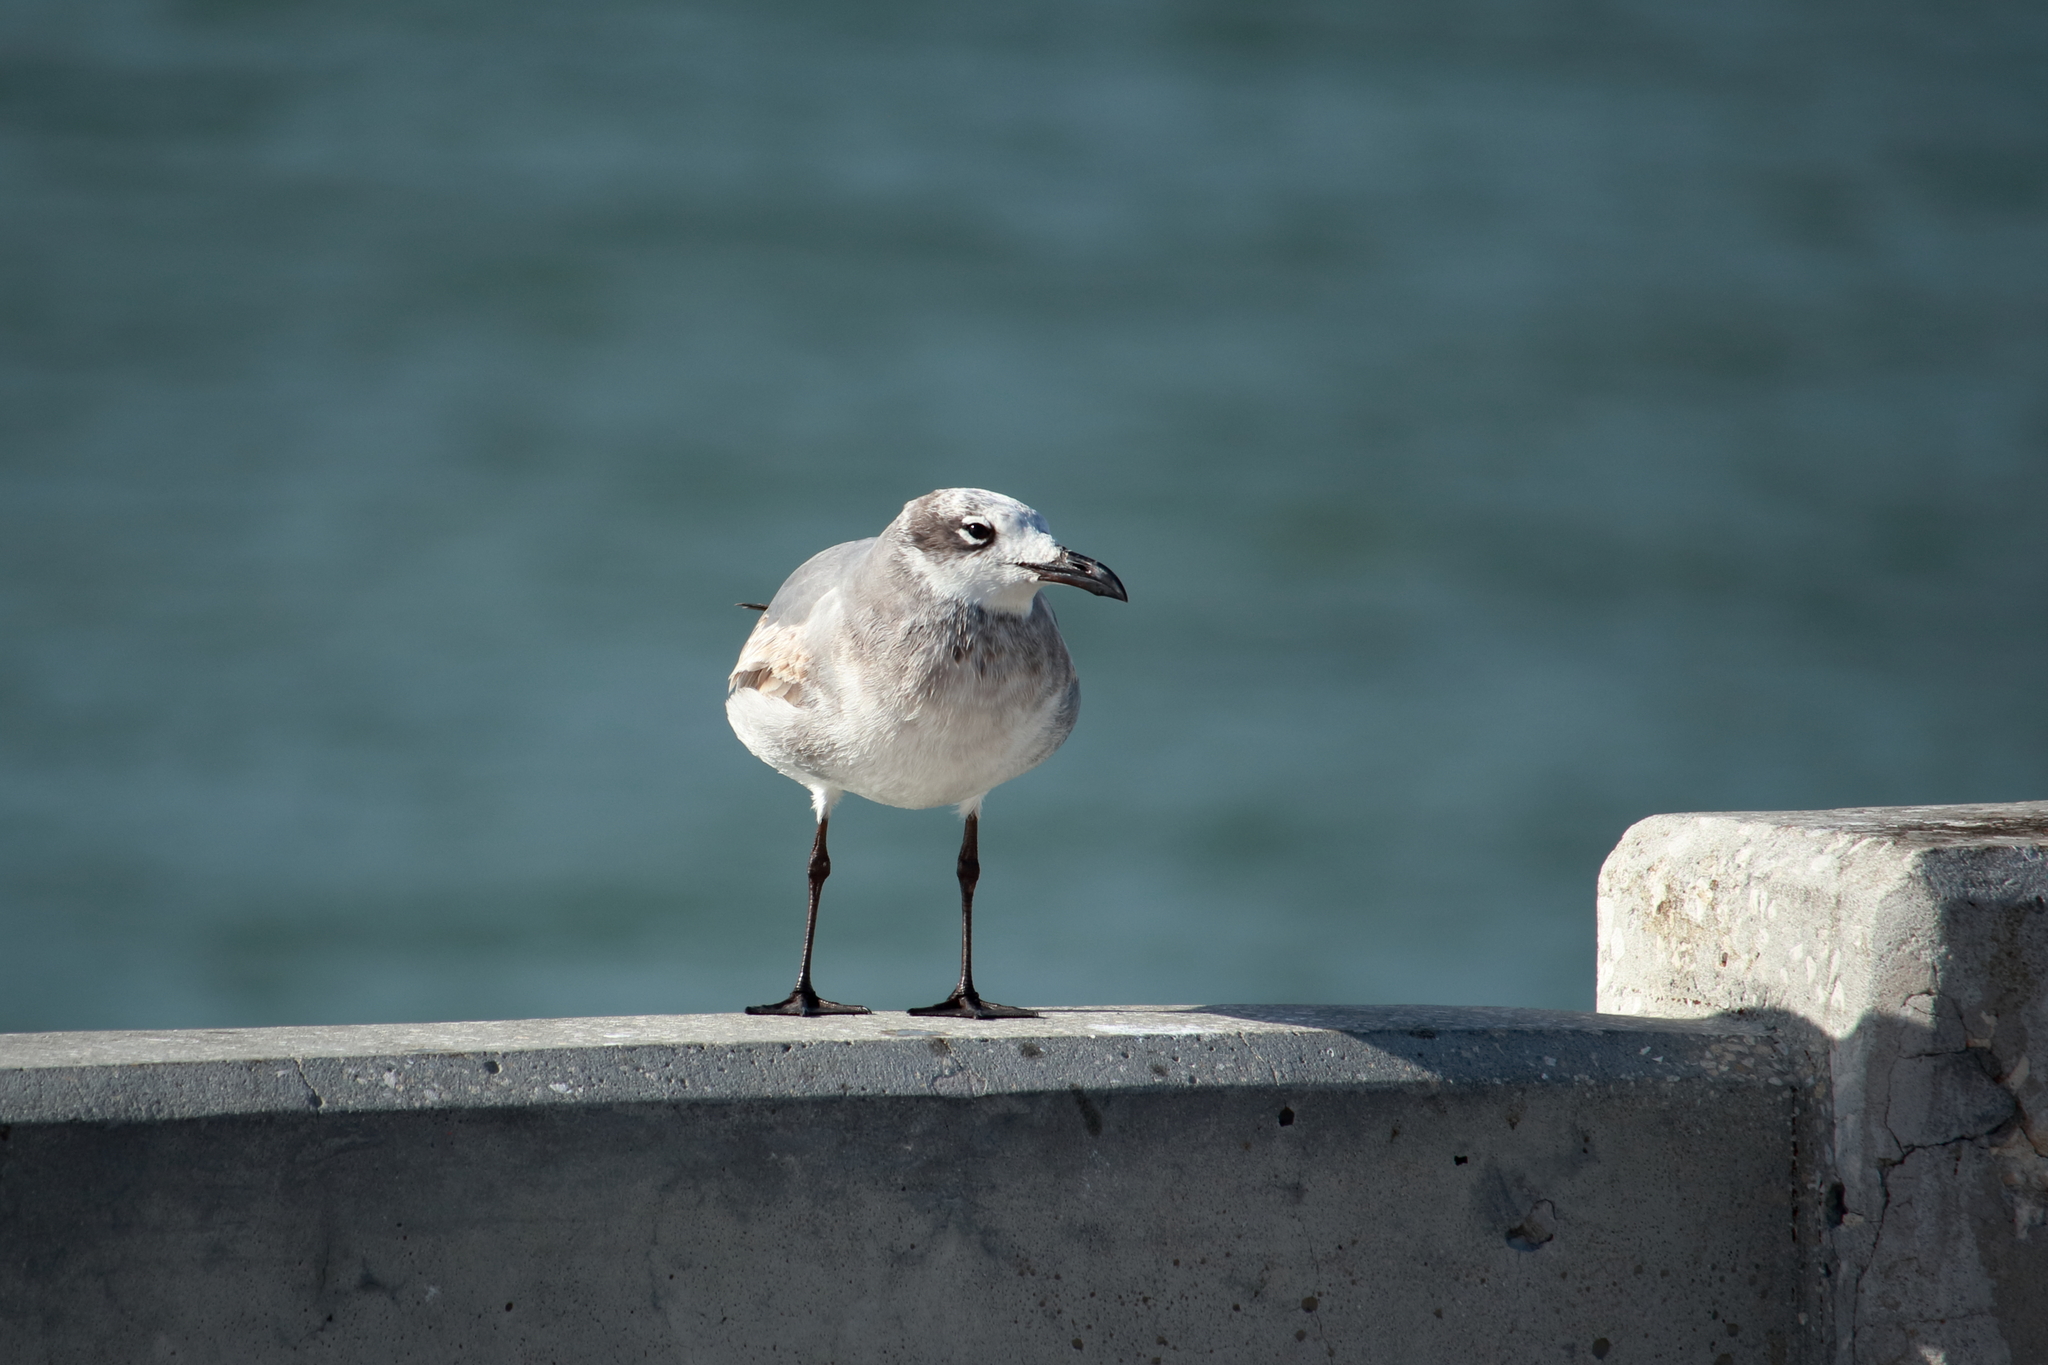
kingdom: Animalia
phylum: Chordata
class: Aves
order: Charadriiformes
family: Laridae
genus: Leucophaeus
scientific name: Leucophaeus atricilla
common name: Laughing gull
